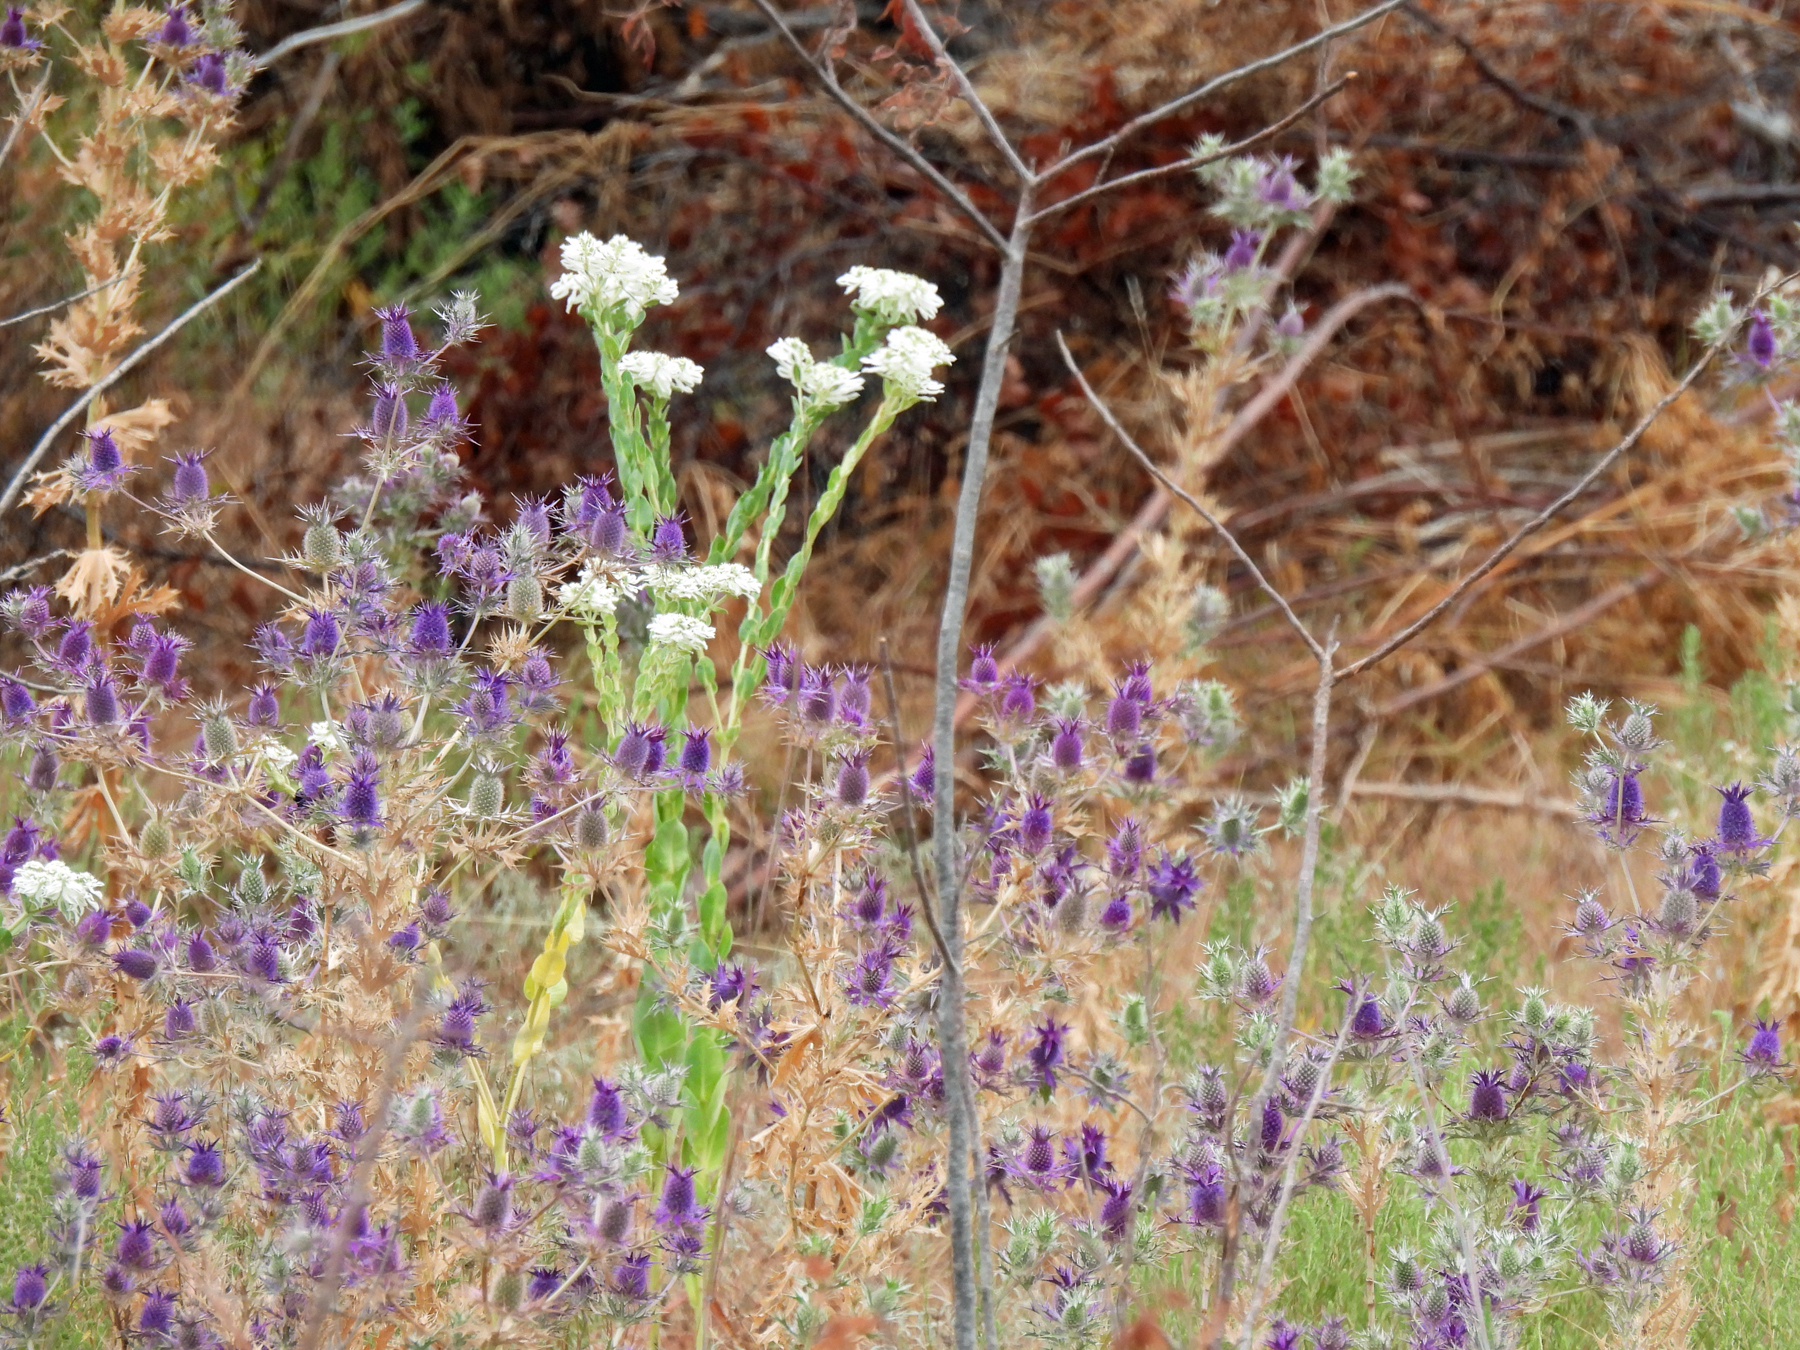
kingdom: Plantae
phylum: Tracheophyta
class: Magnoliopsida
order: Apiales
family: Apiaceae
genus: Eryngium
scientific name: Eryngium leavenworthii
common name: Leavenworth's eryngo
